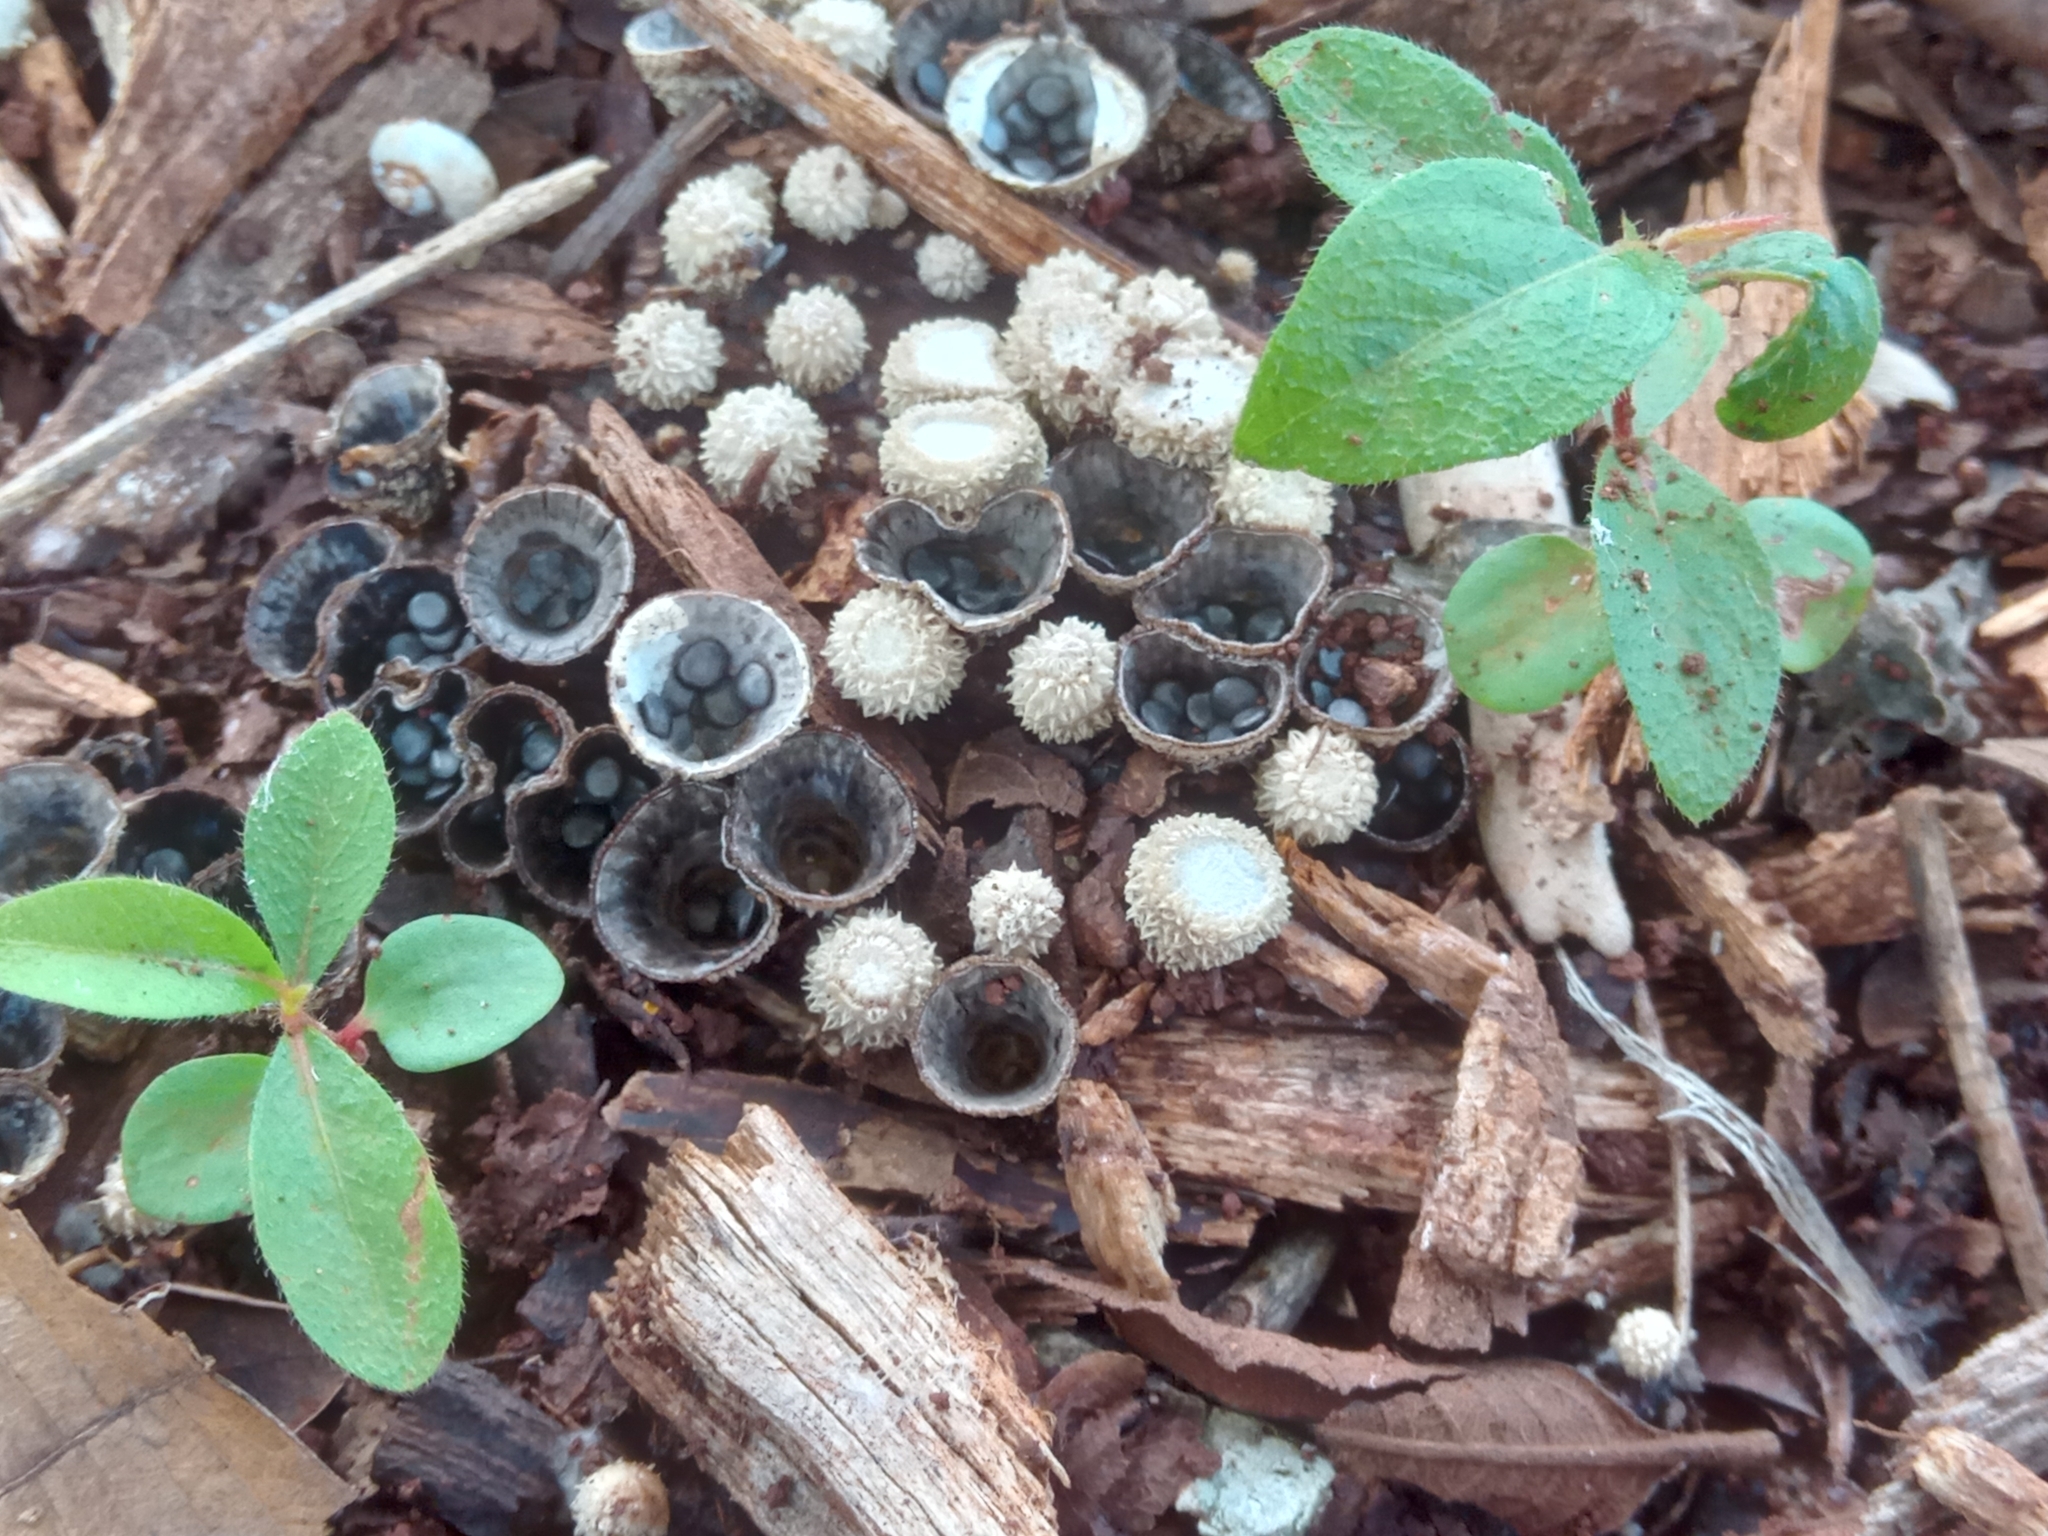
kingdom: Fungi
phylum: Basidiomycota
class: Agaricomycetes
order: Agaricales
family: Agaricaceae
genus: Cyathus
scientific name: Cyathus striatus
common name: Fluted bird's nest
